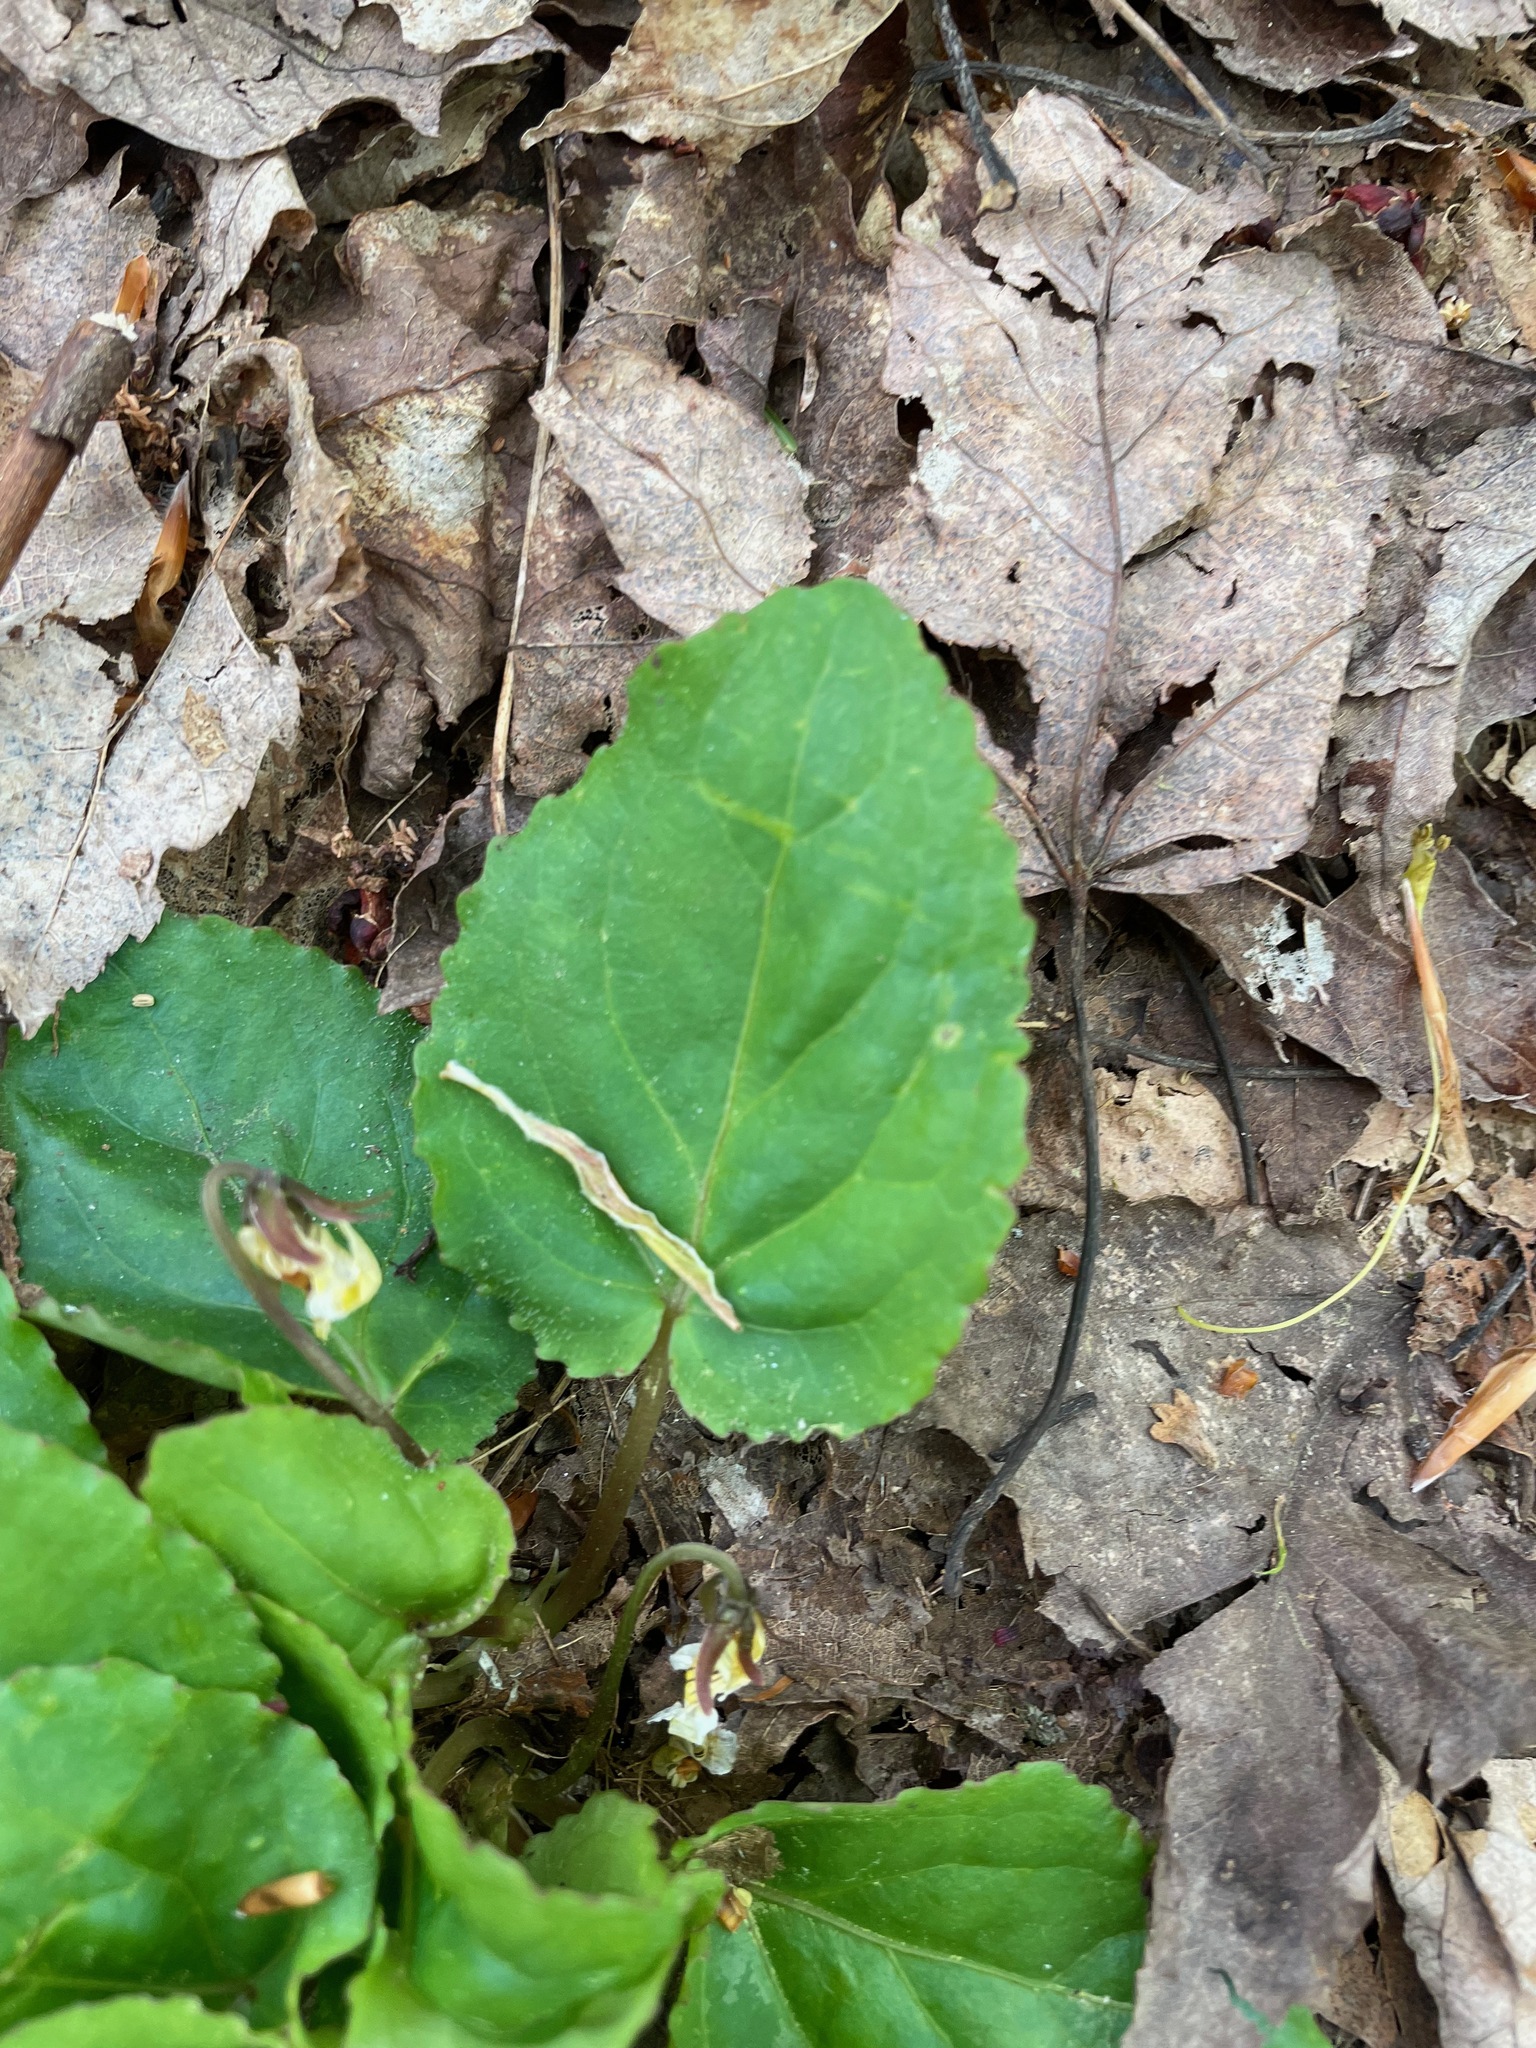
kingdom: Plantae
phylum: Tracheophyta
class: Magnoliopsida
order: Malpighiales
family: Violaceae
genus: Viola
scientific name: Viola rotundifolia
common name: Early yellow violet
